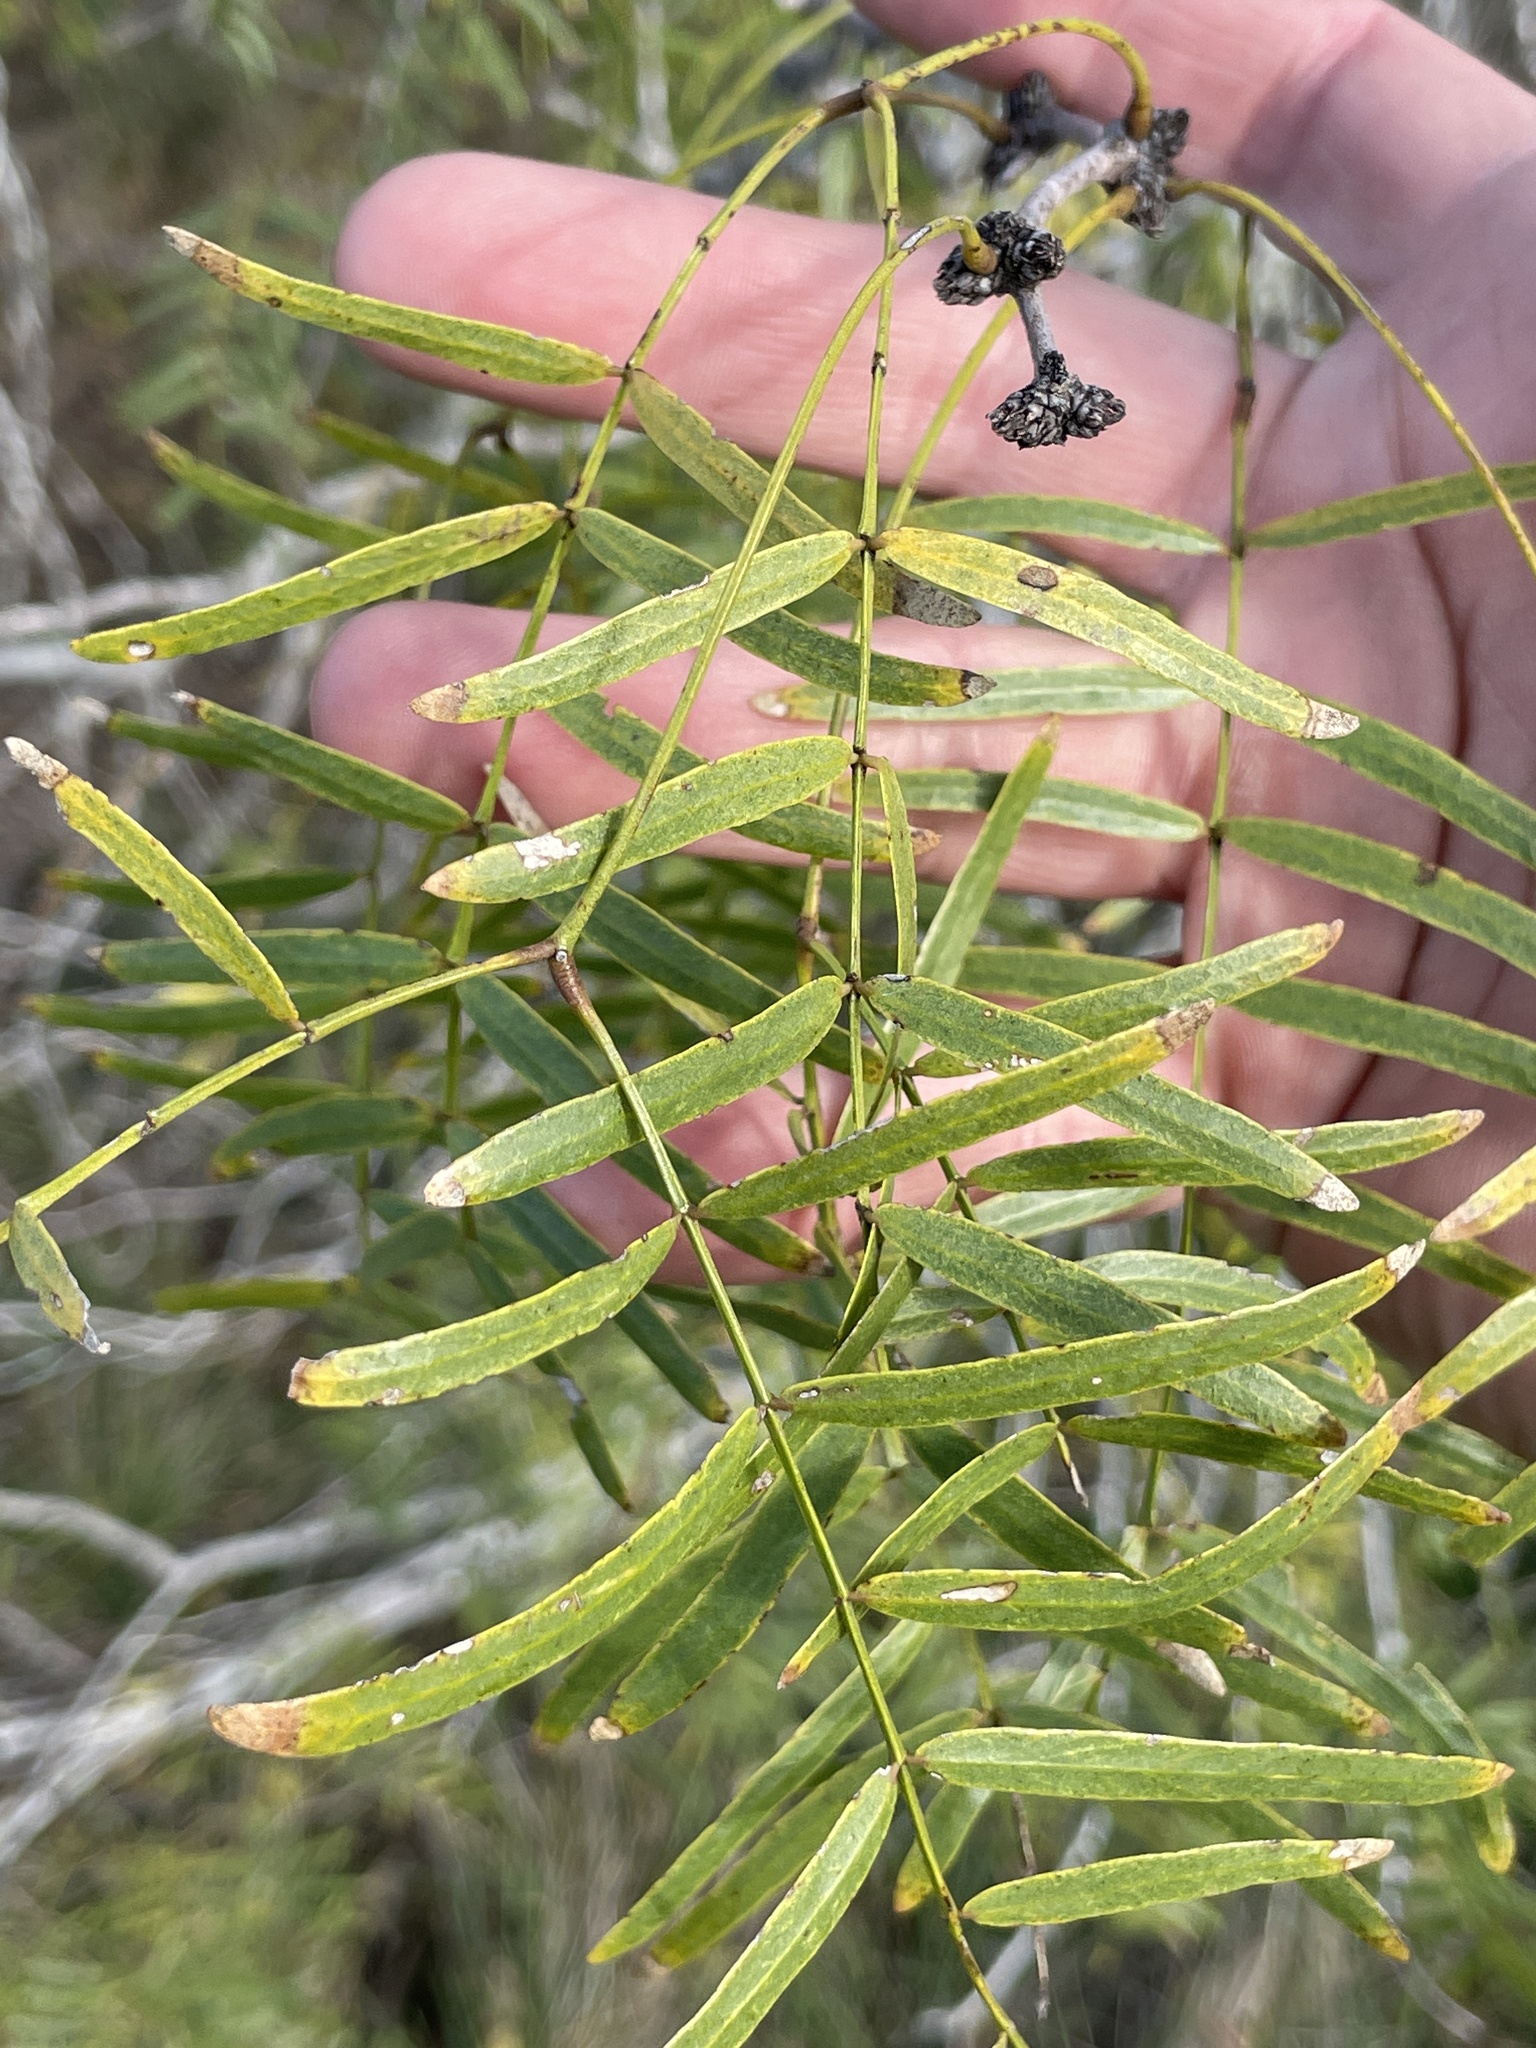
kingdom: Plantae
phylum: Tracheophyta
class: Magnoliopsida
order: Fabales
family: Fabaceae
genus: Prosopis
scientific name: Prosopis glandulosa
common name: Honey mesquite
